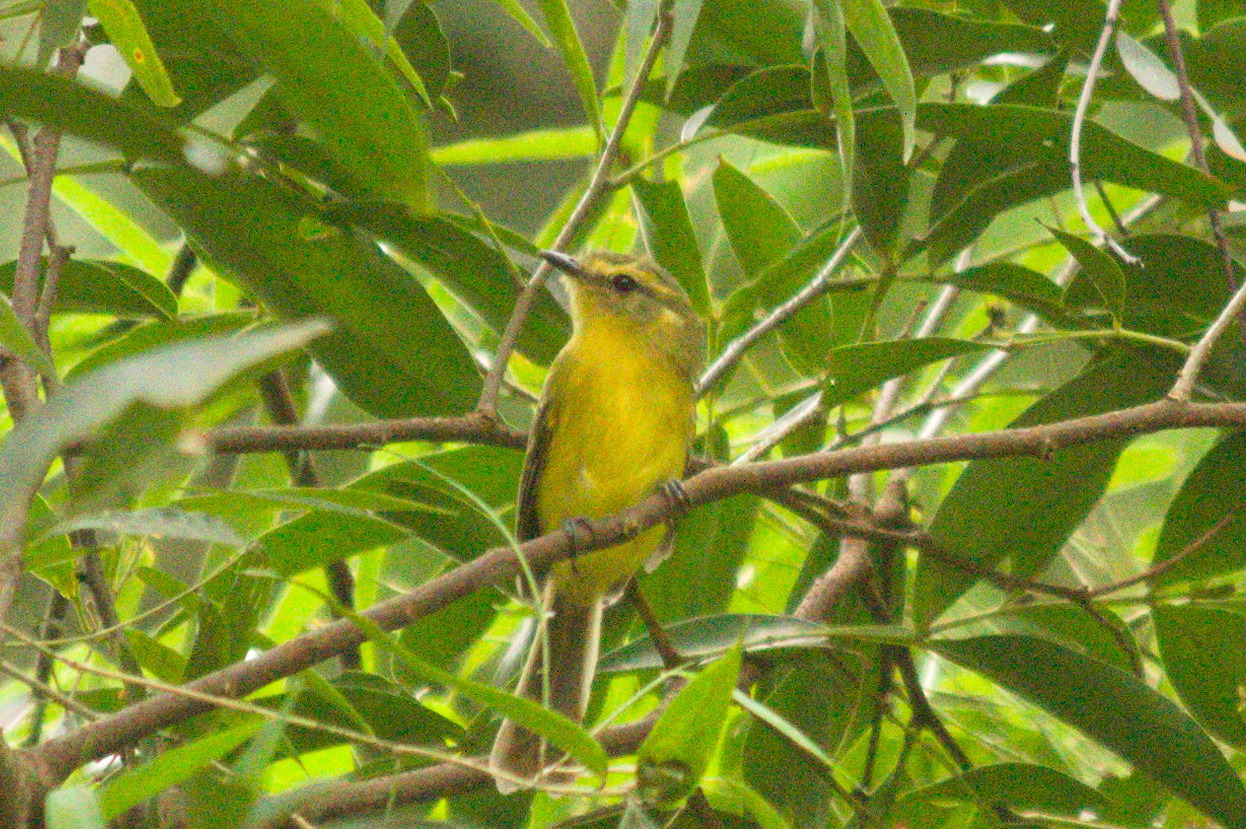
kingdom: Animalia
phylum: Chordata
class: Aves
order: Passeriformes
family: Tyrannidae
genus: Capsiempis
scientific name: Capsiempis flaveola
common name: Yellow tyrannulet
